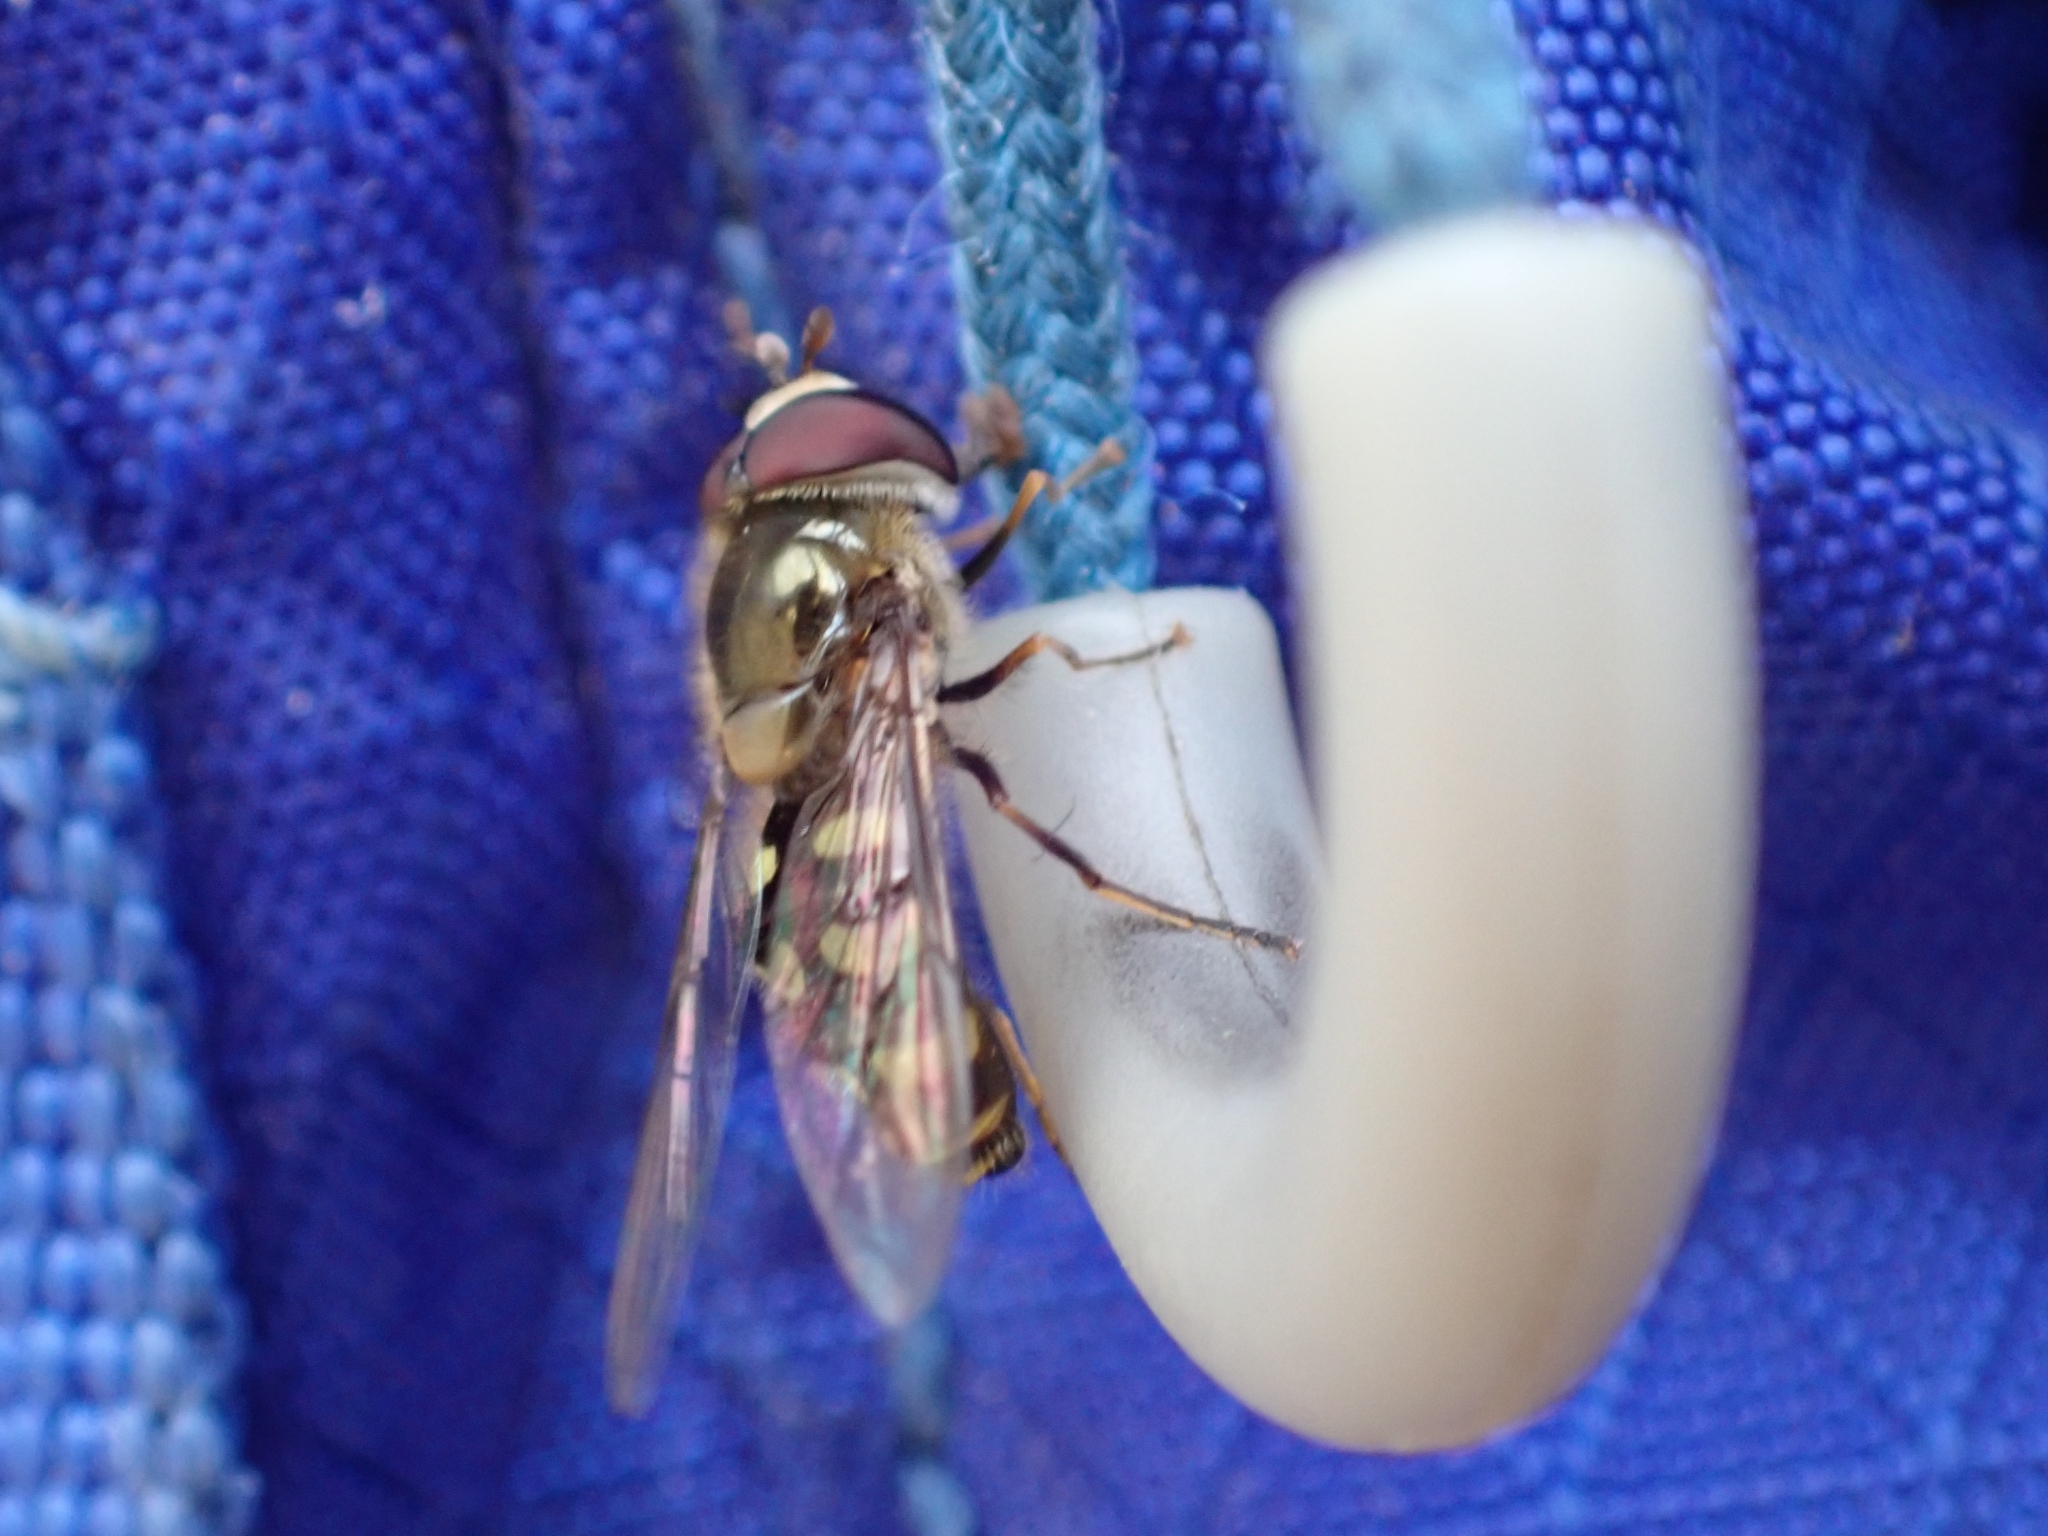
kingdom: Animalia
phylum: Arthropoda
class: Insecta
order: Diptera
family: Syrphidae
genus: Lapposyrphus
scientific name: Lapposyrphus lapponicus
